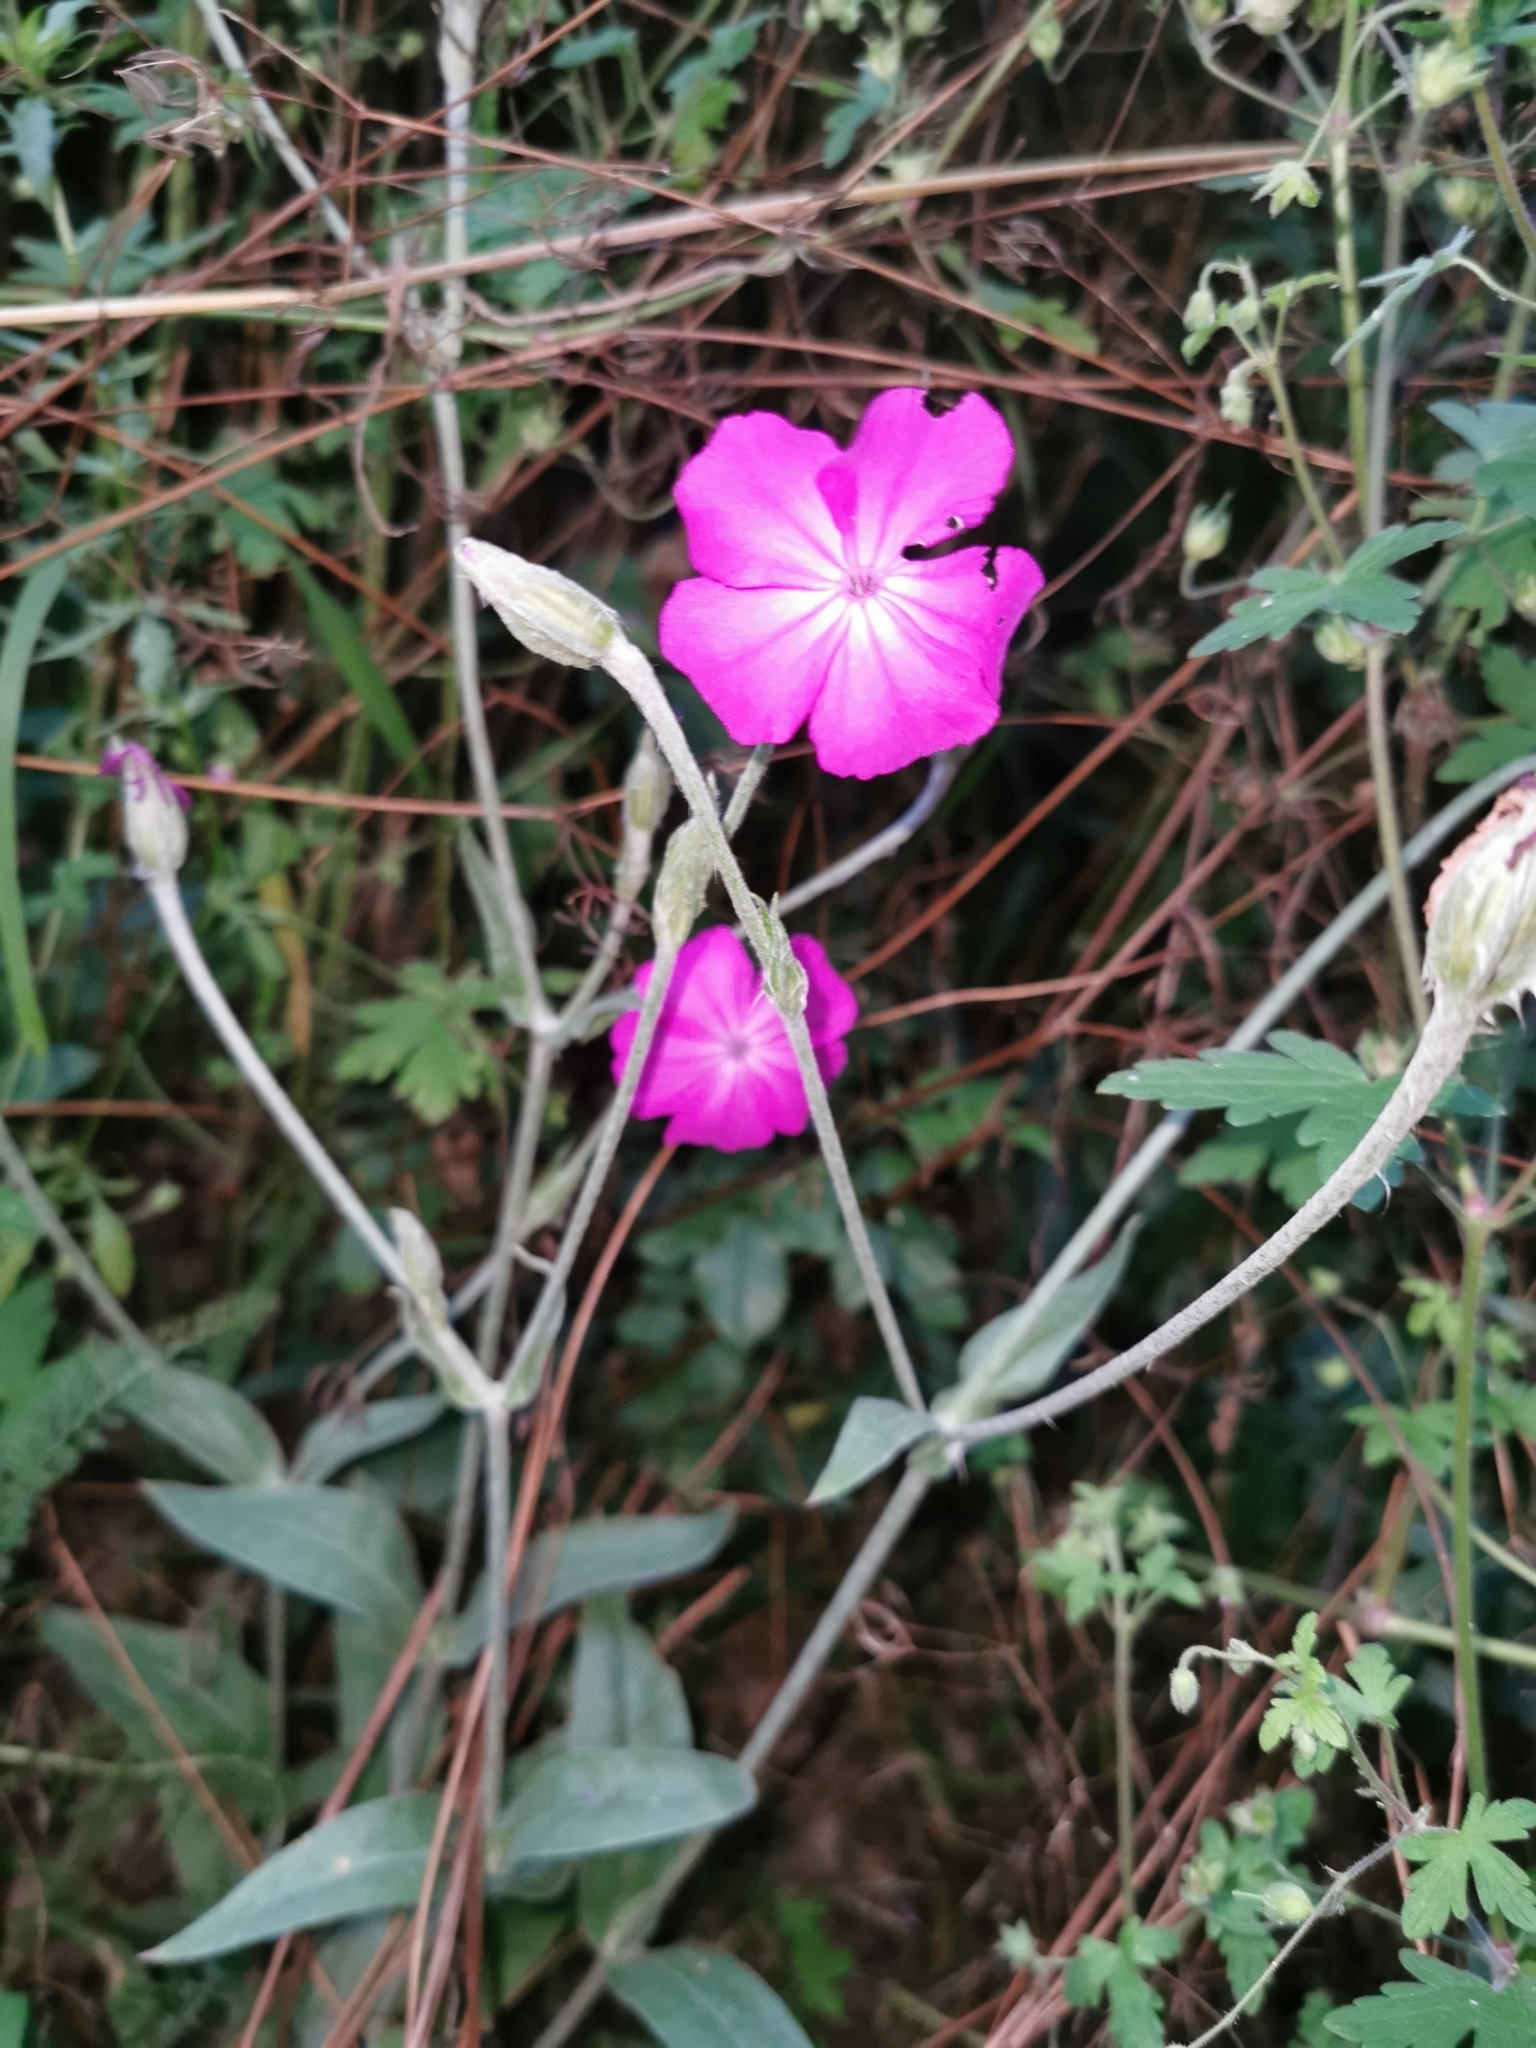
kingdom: Plantae
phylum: Tracheophyta
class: Magnoliopsida
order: Caryophyllales
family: Caryophyllaceae
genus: Silene
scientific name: Silene coronaria
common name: Rose campion
